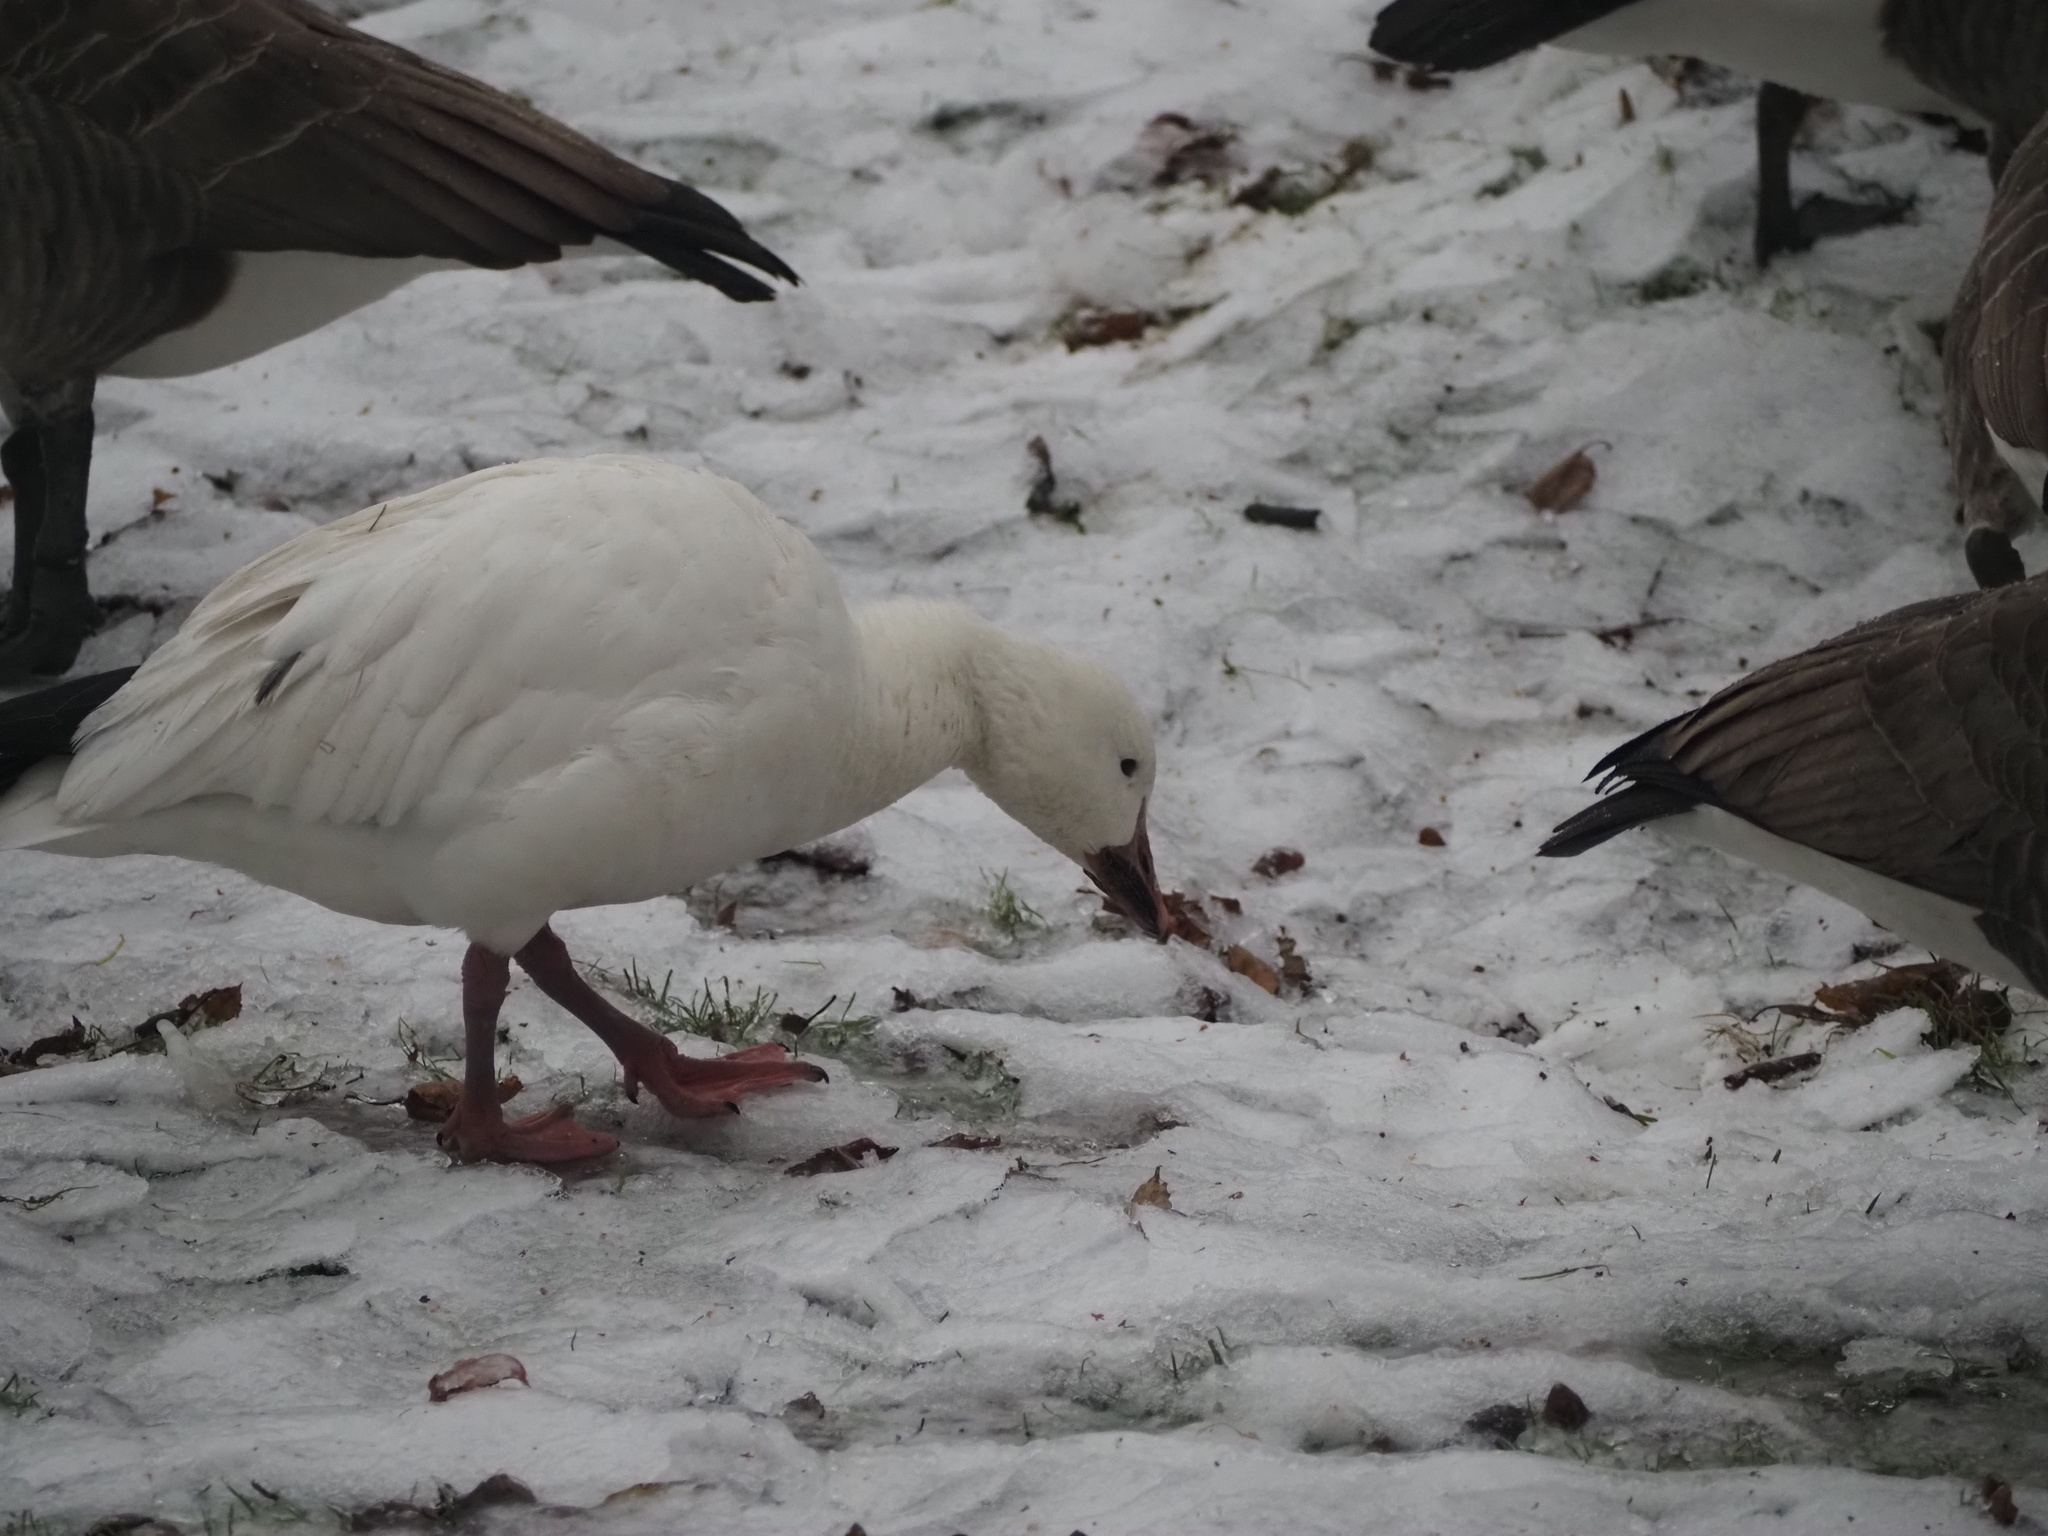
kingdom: Animalia
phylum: Chordata
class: Aves
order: Anseriformes
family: Anatidae
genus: Anser
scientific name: Anser caerulescens
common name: Snow goose
